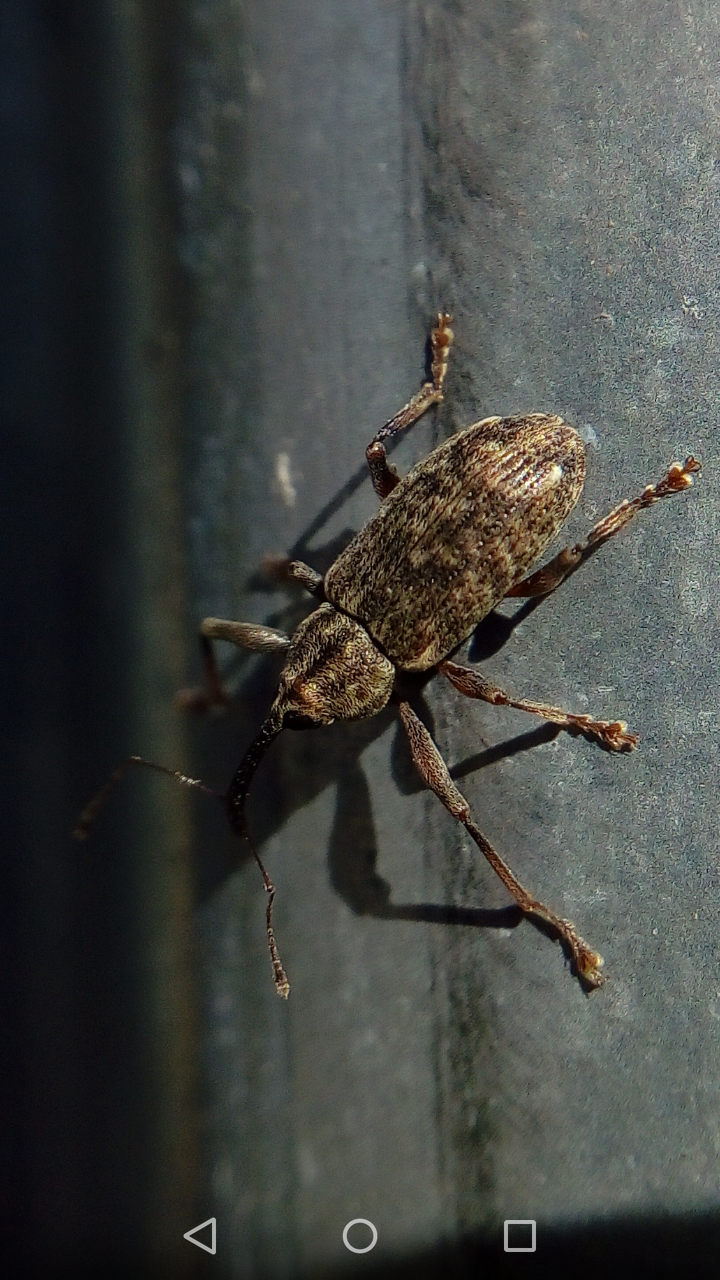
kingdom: Animalia
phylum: Arthropoda
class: Insecta
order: Coleoptera
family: Curculionidae
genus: Dorytomus
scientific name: Dorytomus longimanus
